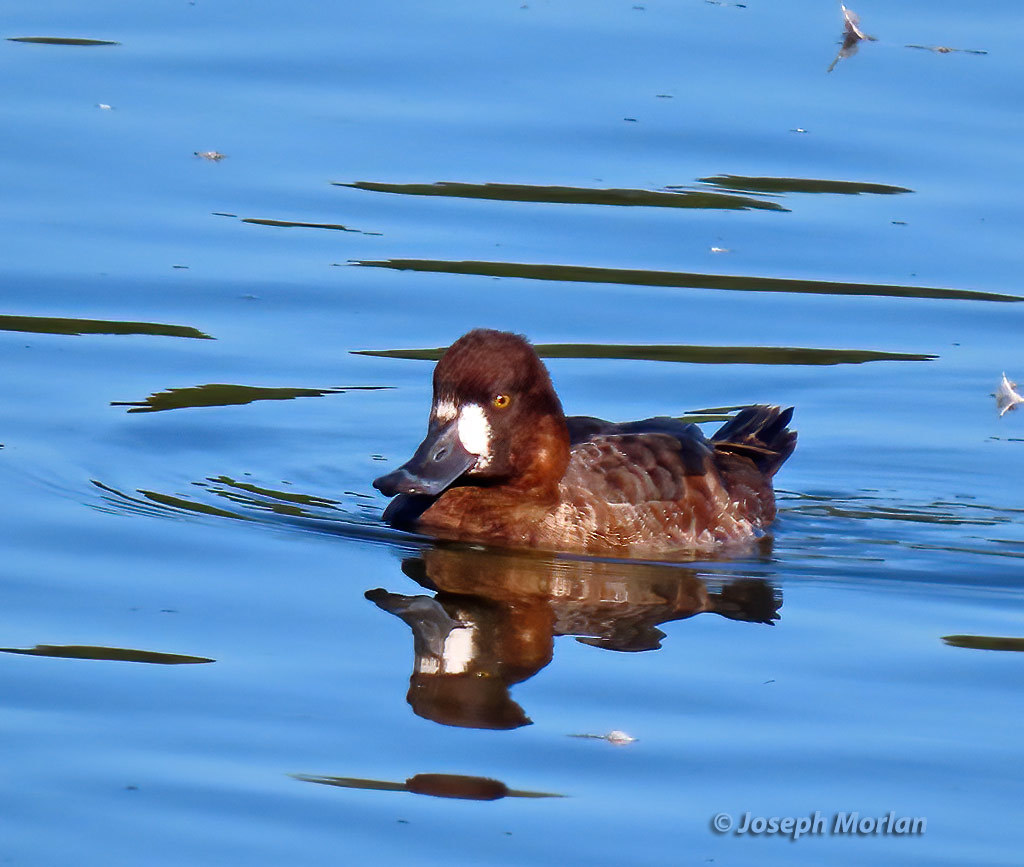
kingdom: Animalia
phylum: Chordata
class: Aves
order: Anseriformes
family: Anatidae
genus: Aythya
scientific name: Aythya affinis
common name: Lesser scaup
